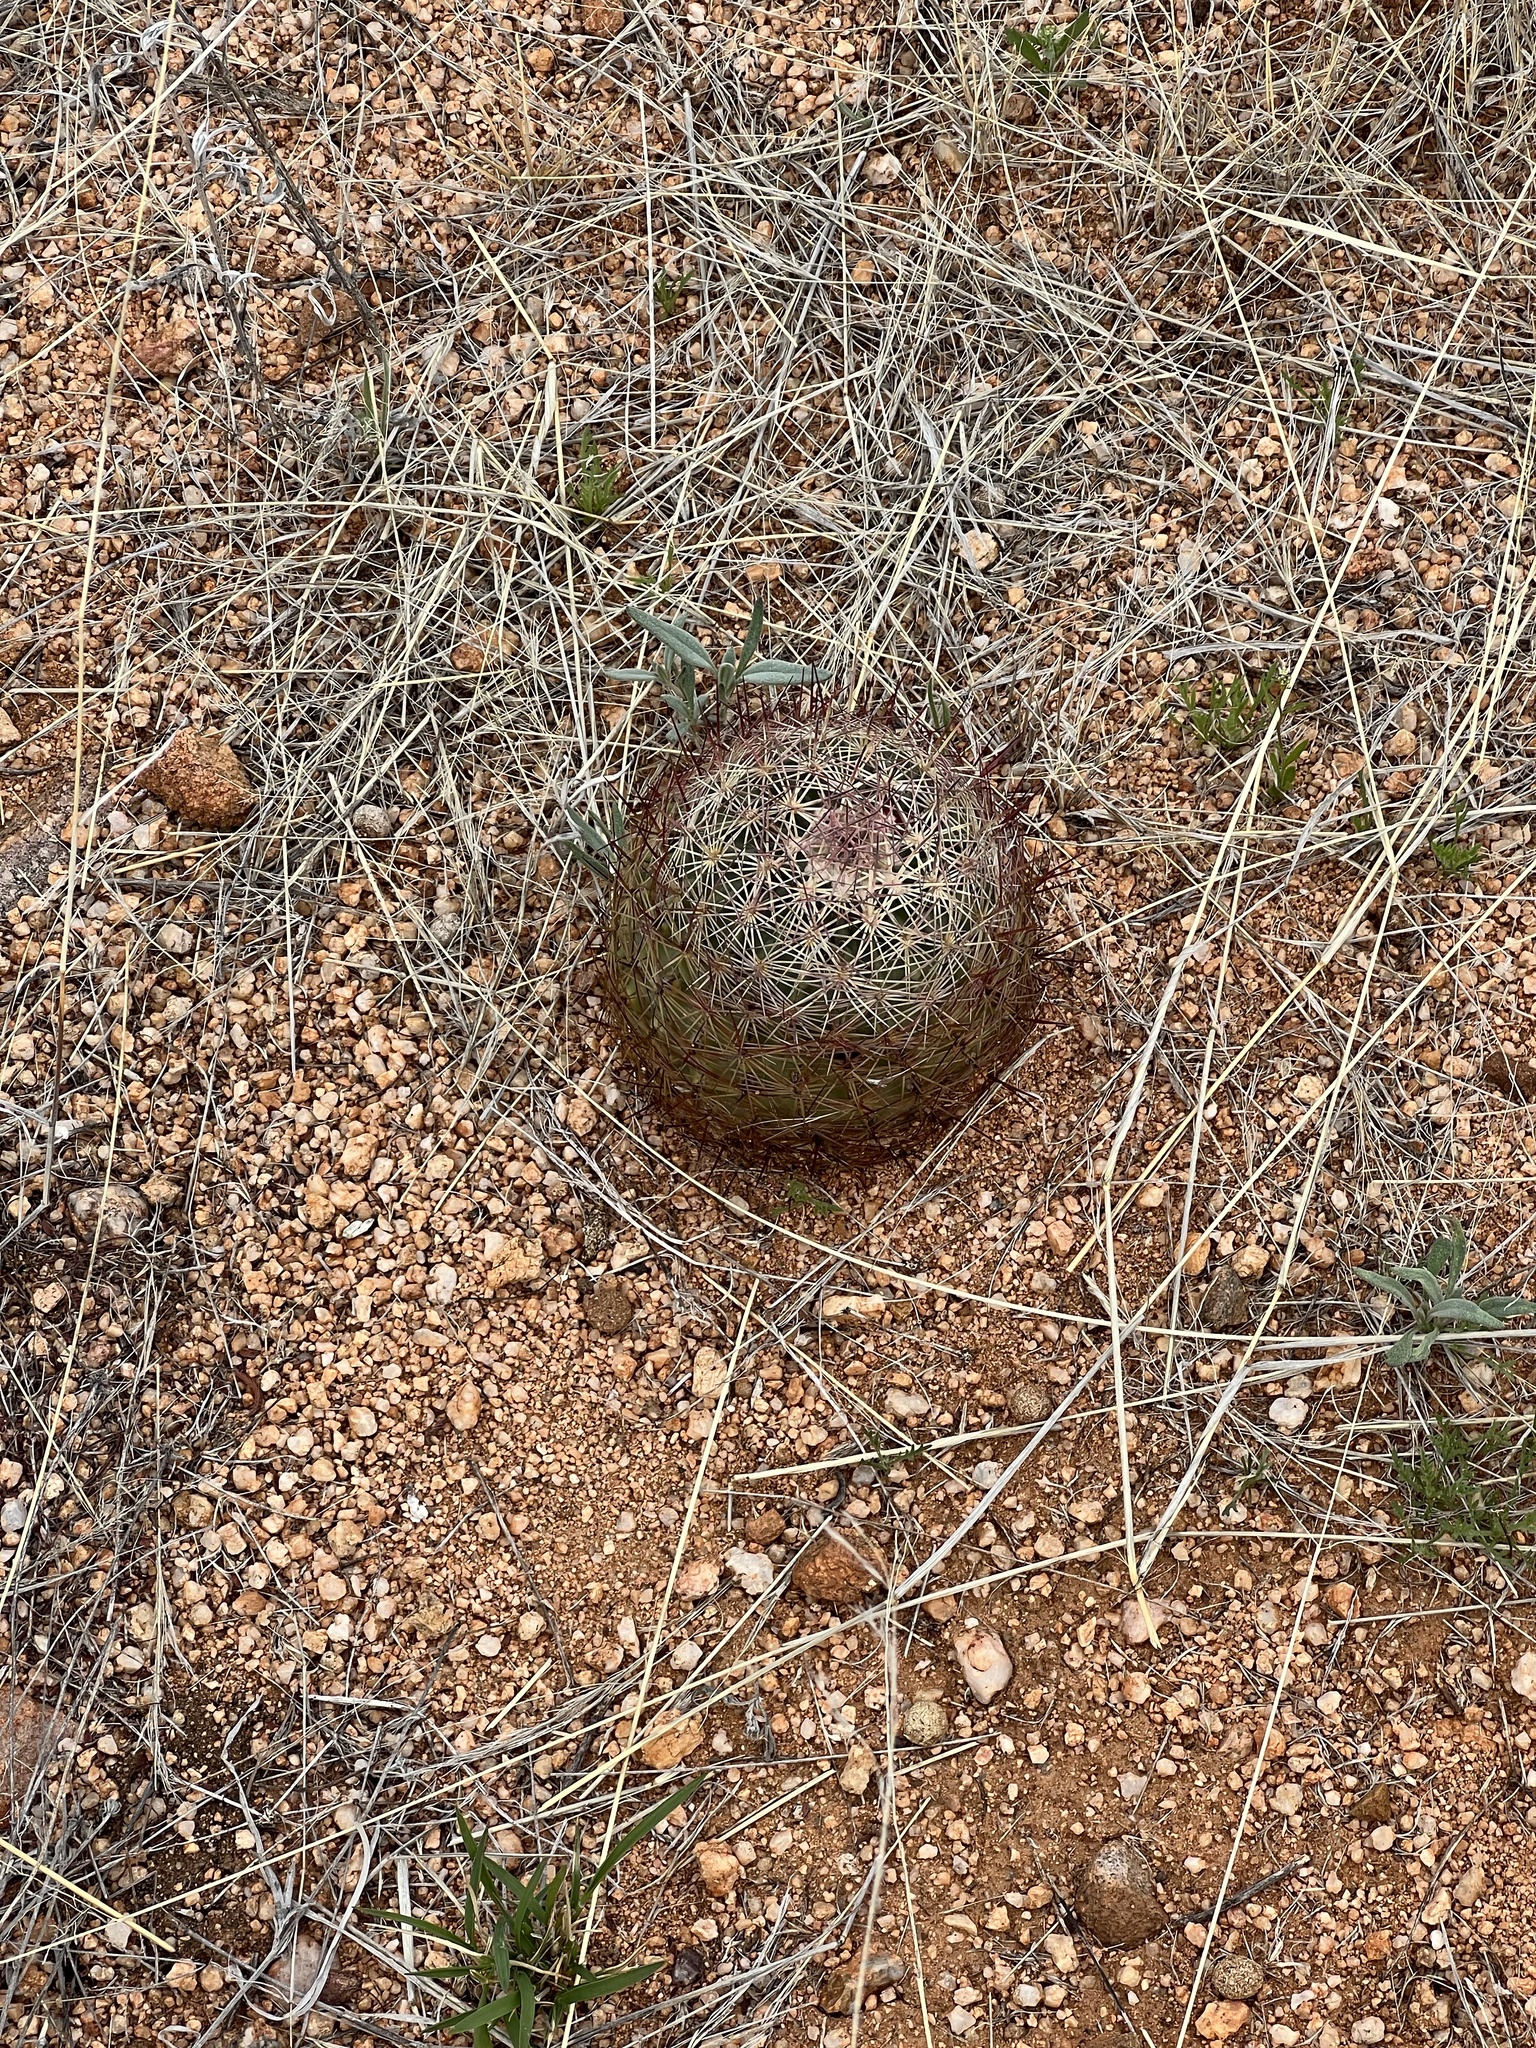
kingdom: Plantae
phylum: Tracheophyta
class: Magnoliopsida
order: Caryophyllales
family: Cactaceae
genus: Sclerocactus
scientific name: Sclerocactus johnsonii
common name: Eight-spine fishhook cactus
